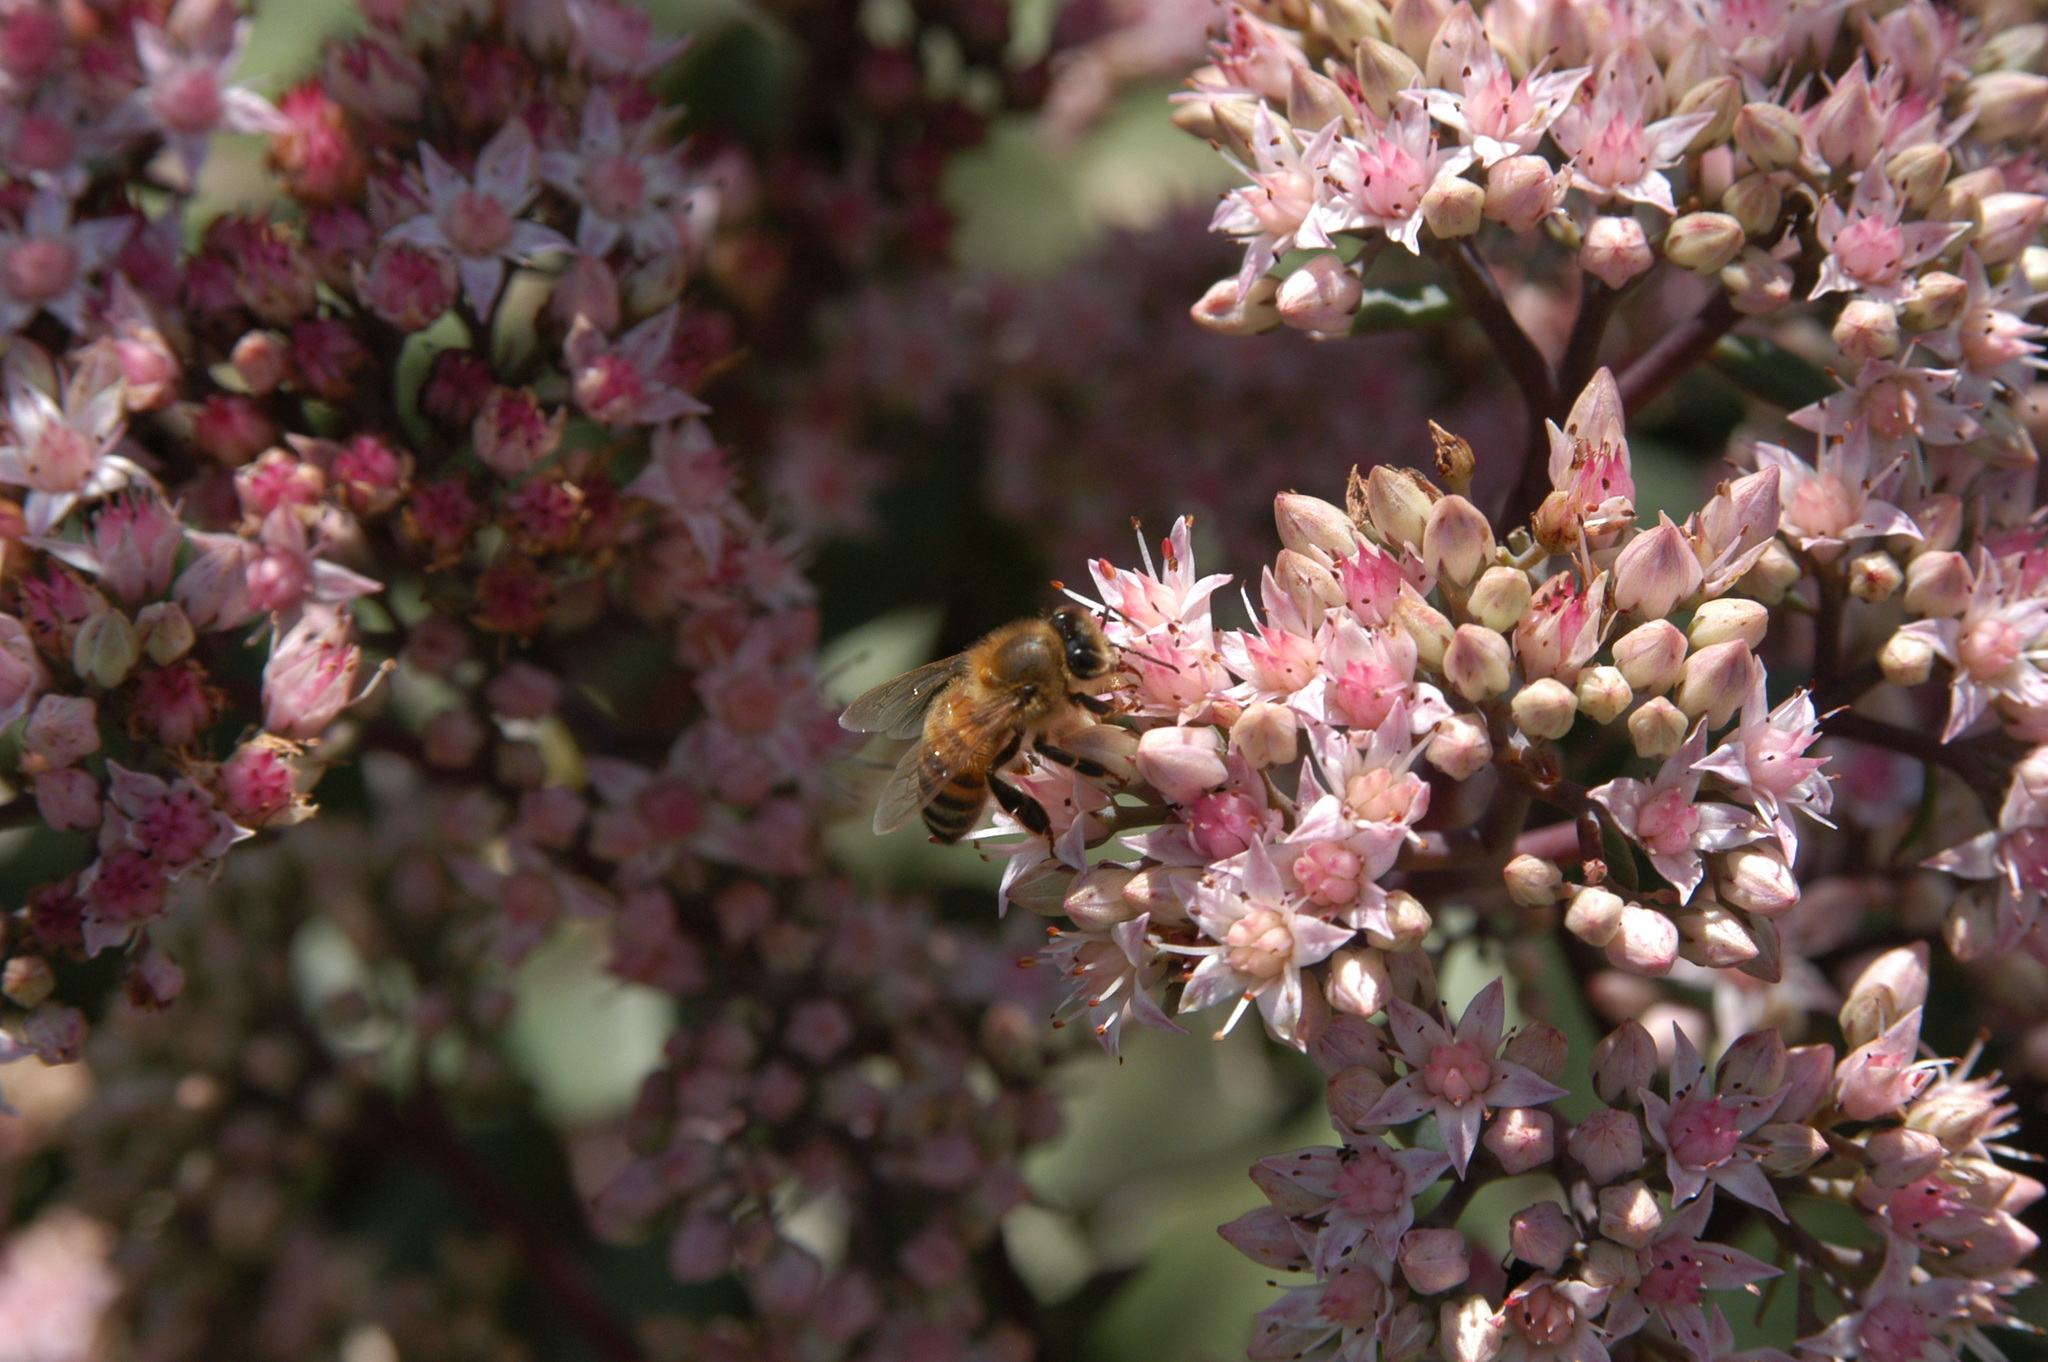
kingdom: Animalia
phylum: Arthropoda
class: Insecta
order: Hymenoptera
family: Apidae
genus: Apis
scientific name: Apis mellifera
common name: Honey bee
